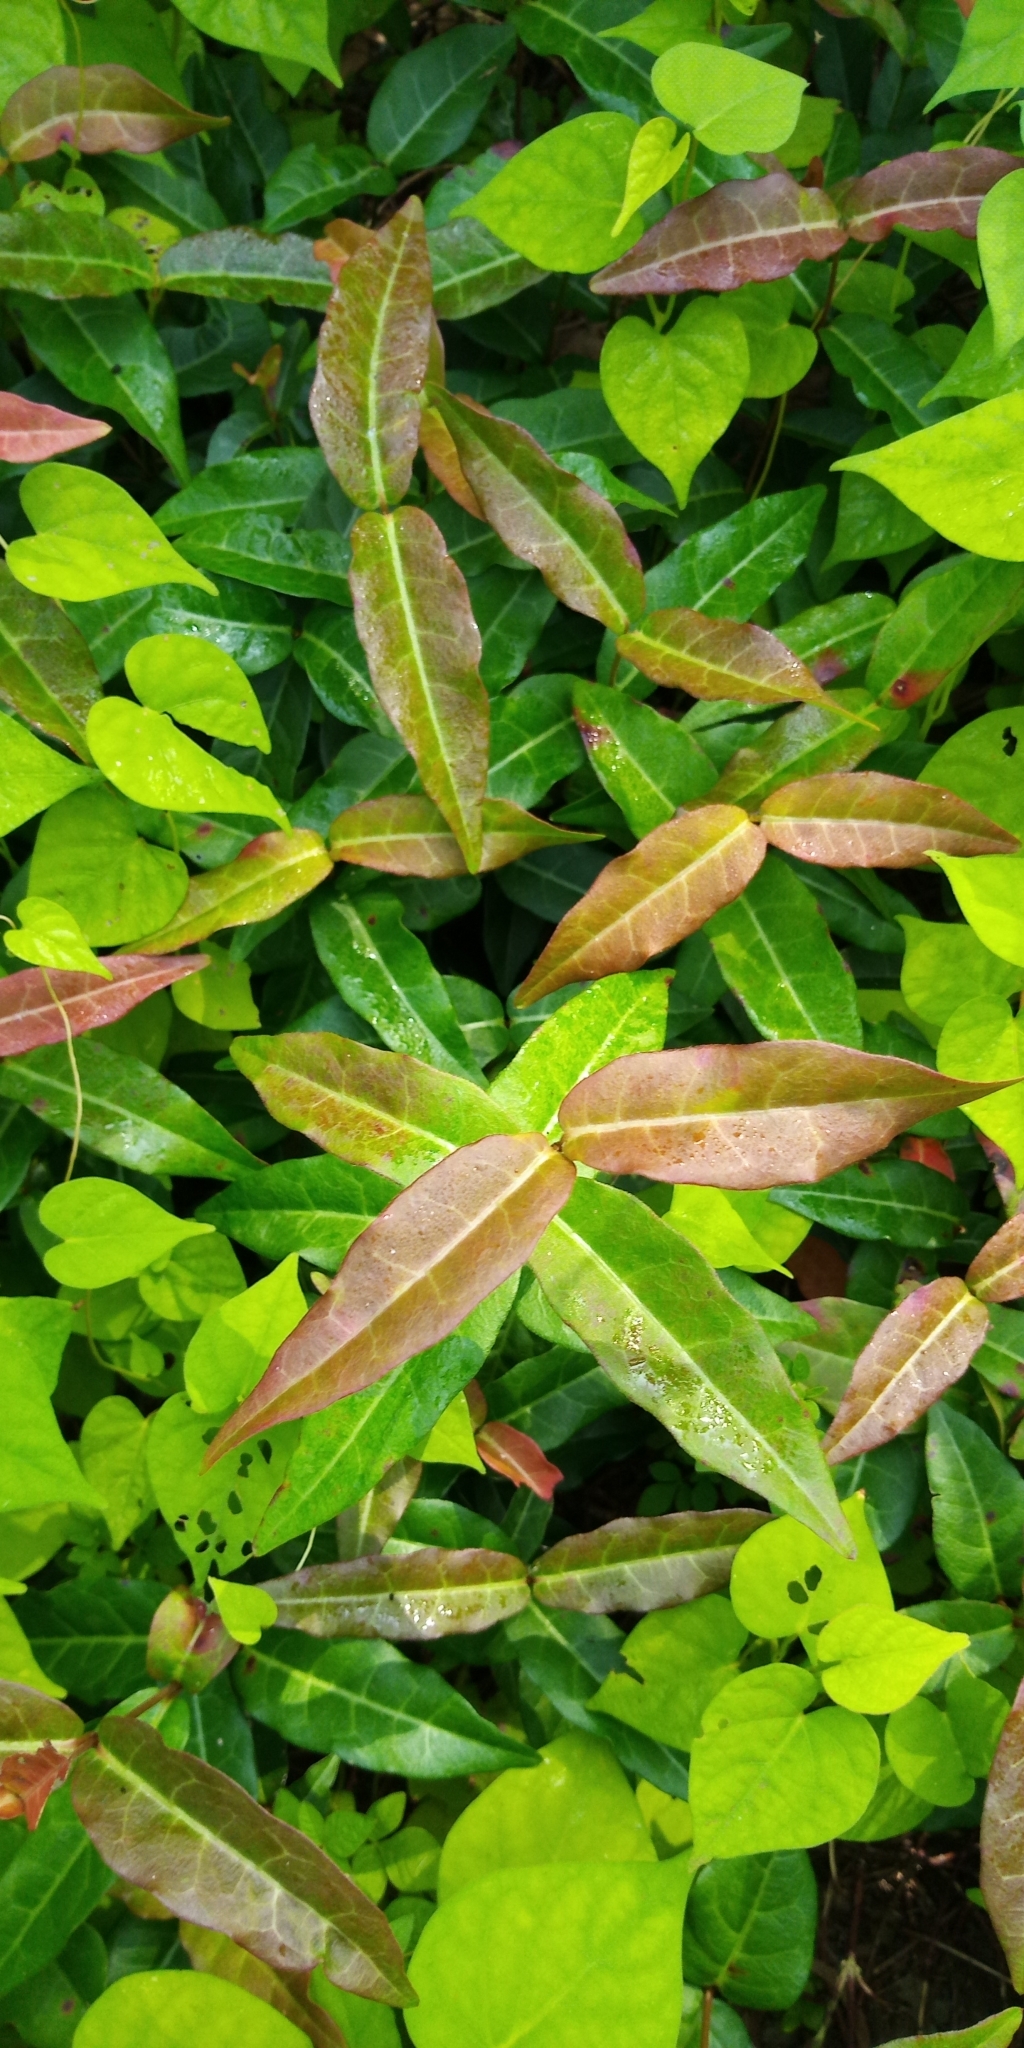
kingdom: Plantae
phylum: Tracheophyta
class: Magnoliopsida
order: Gentianales
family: Apocynaceae
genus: Trachelospermum
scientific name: Trachelospermum jasminoides
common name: Confederate jasmine
